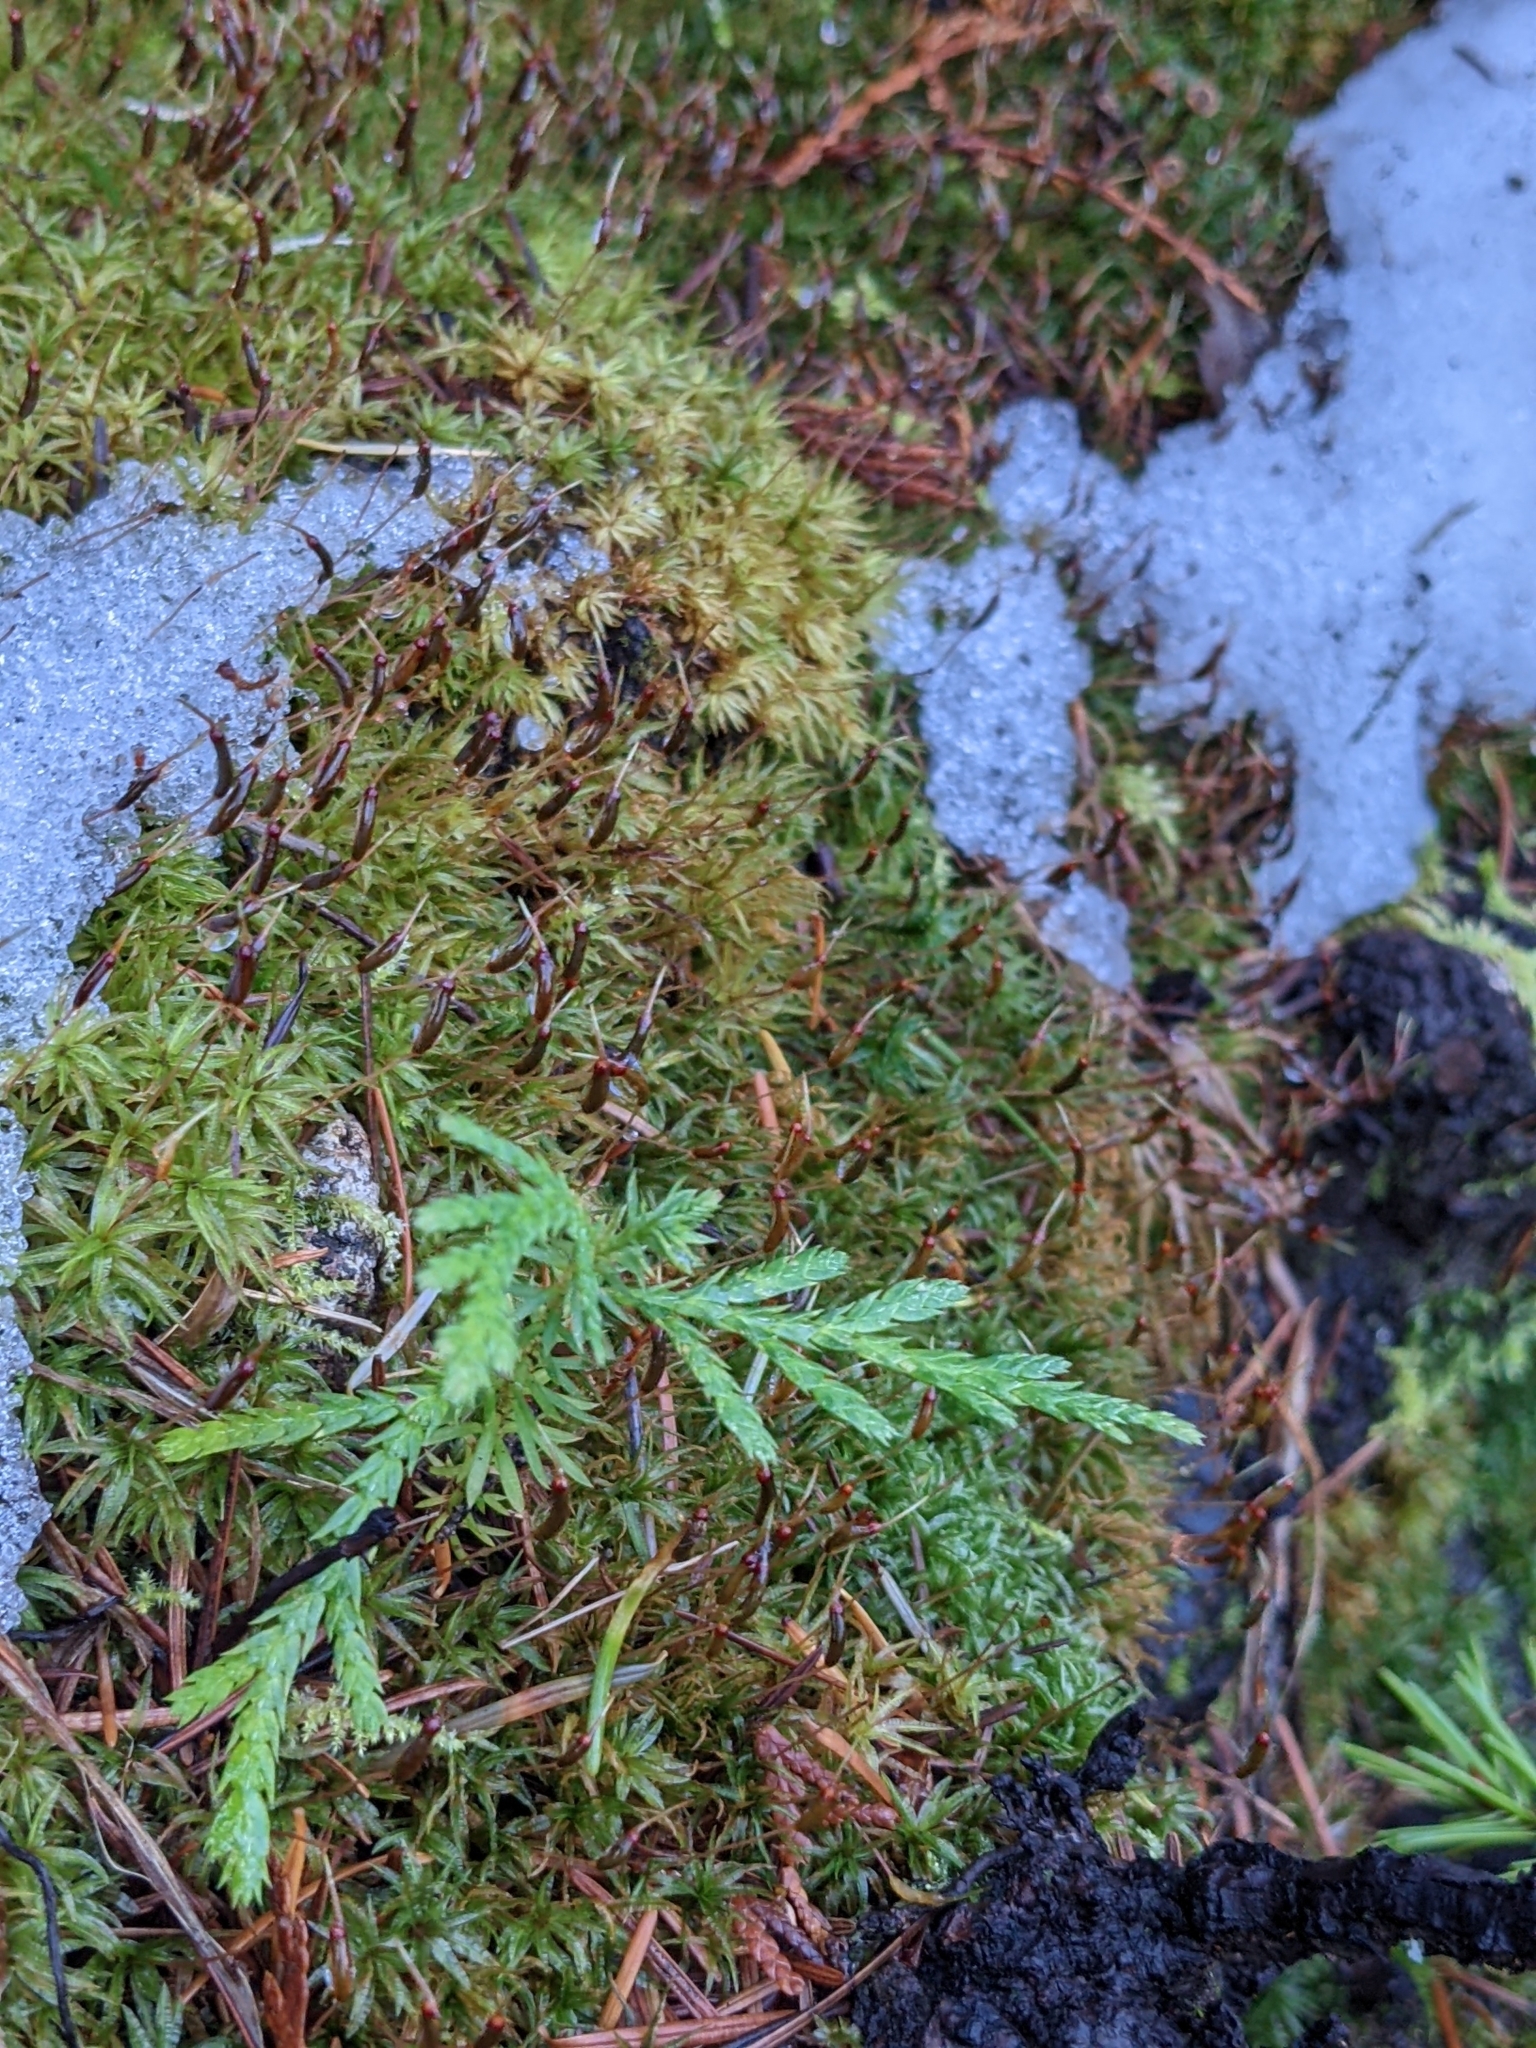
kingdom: Plantae
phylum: Tracheophyta
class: Pinopsida
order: Pinales
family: Cupressaceae
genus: Thuja
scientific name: Thuja plicata
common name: Western red-cedar
